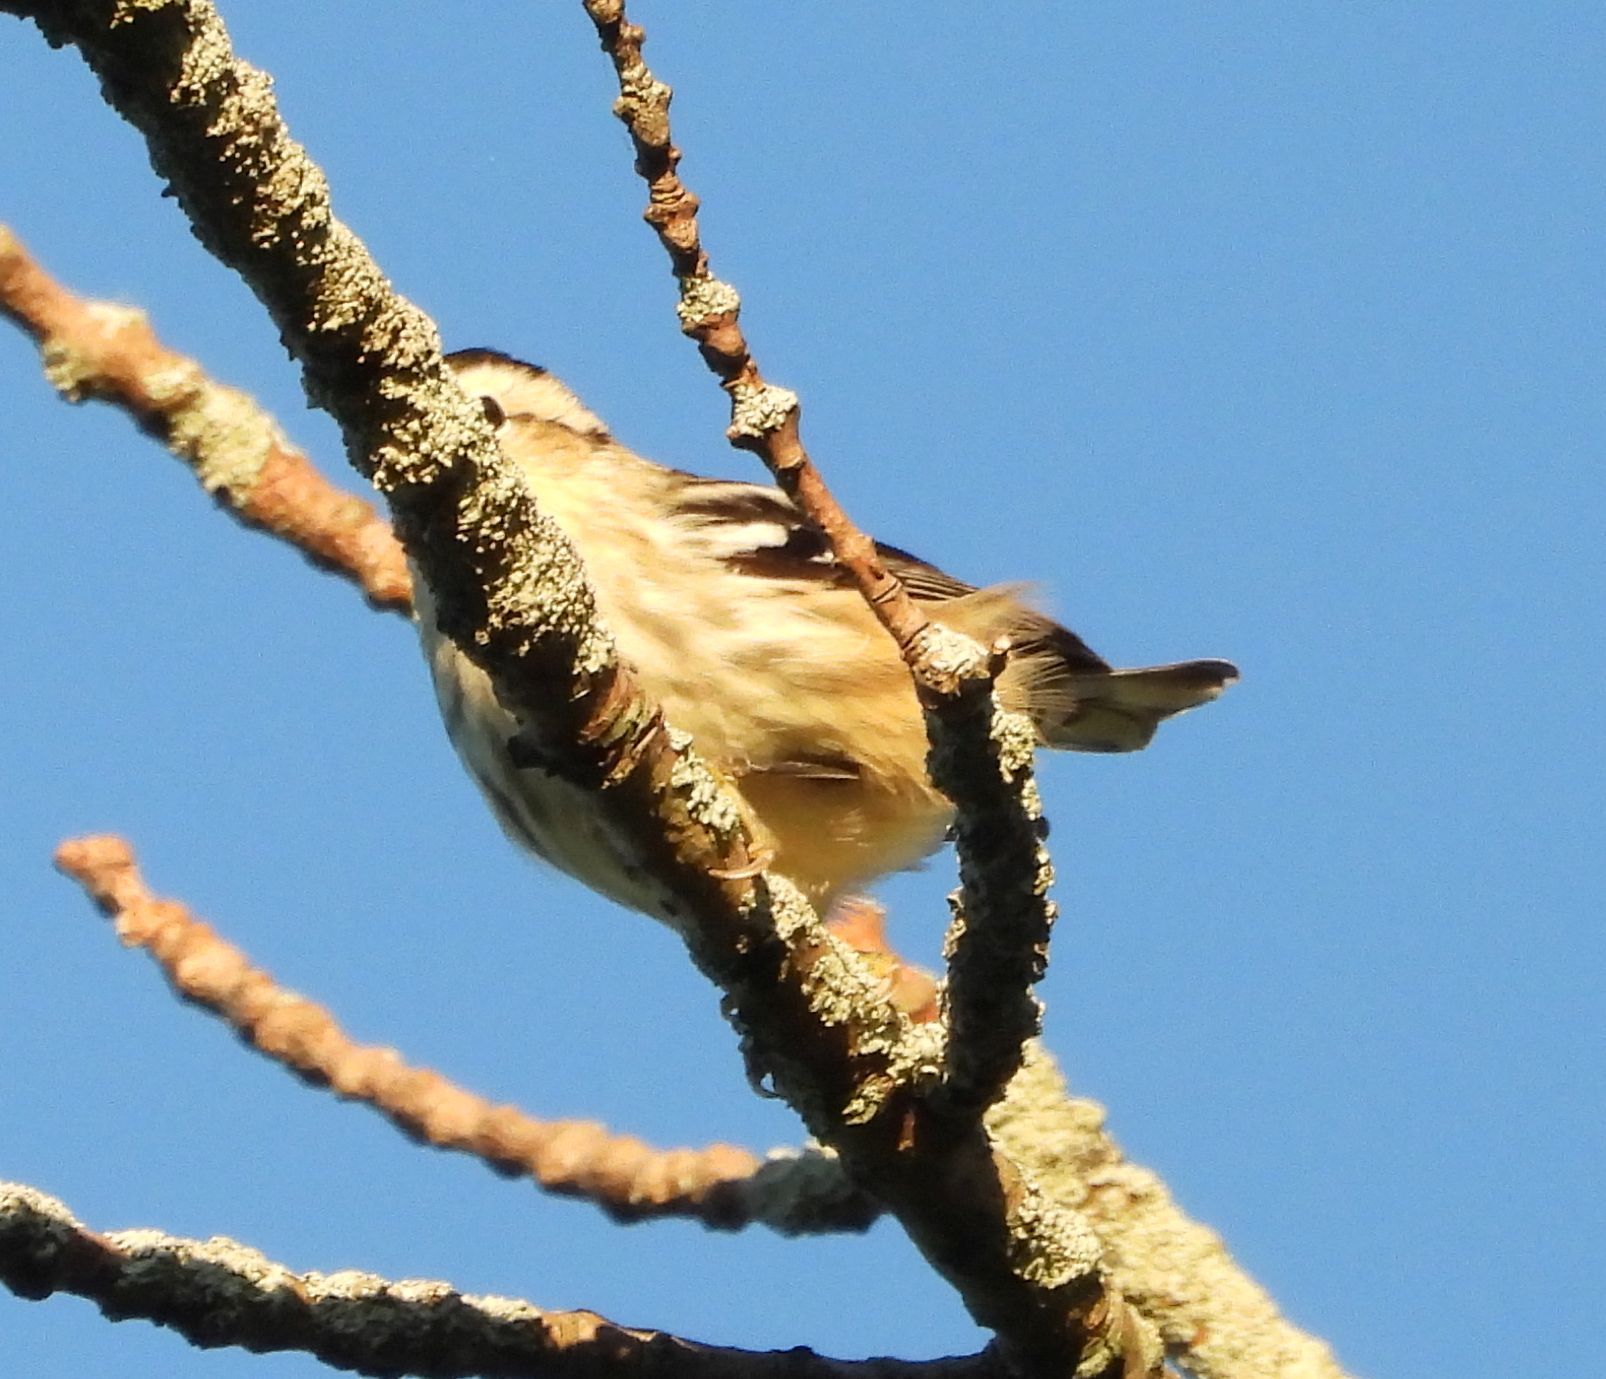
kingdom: Animalia
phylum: Chordata
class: Aves
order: Passeriformes
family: Parulidae
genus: Mniotilta
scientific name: Mniotilta varia
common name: Black-and-white warbler
